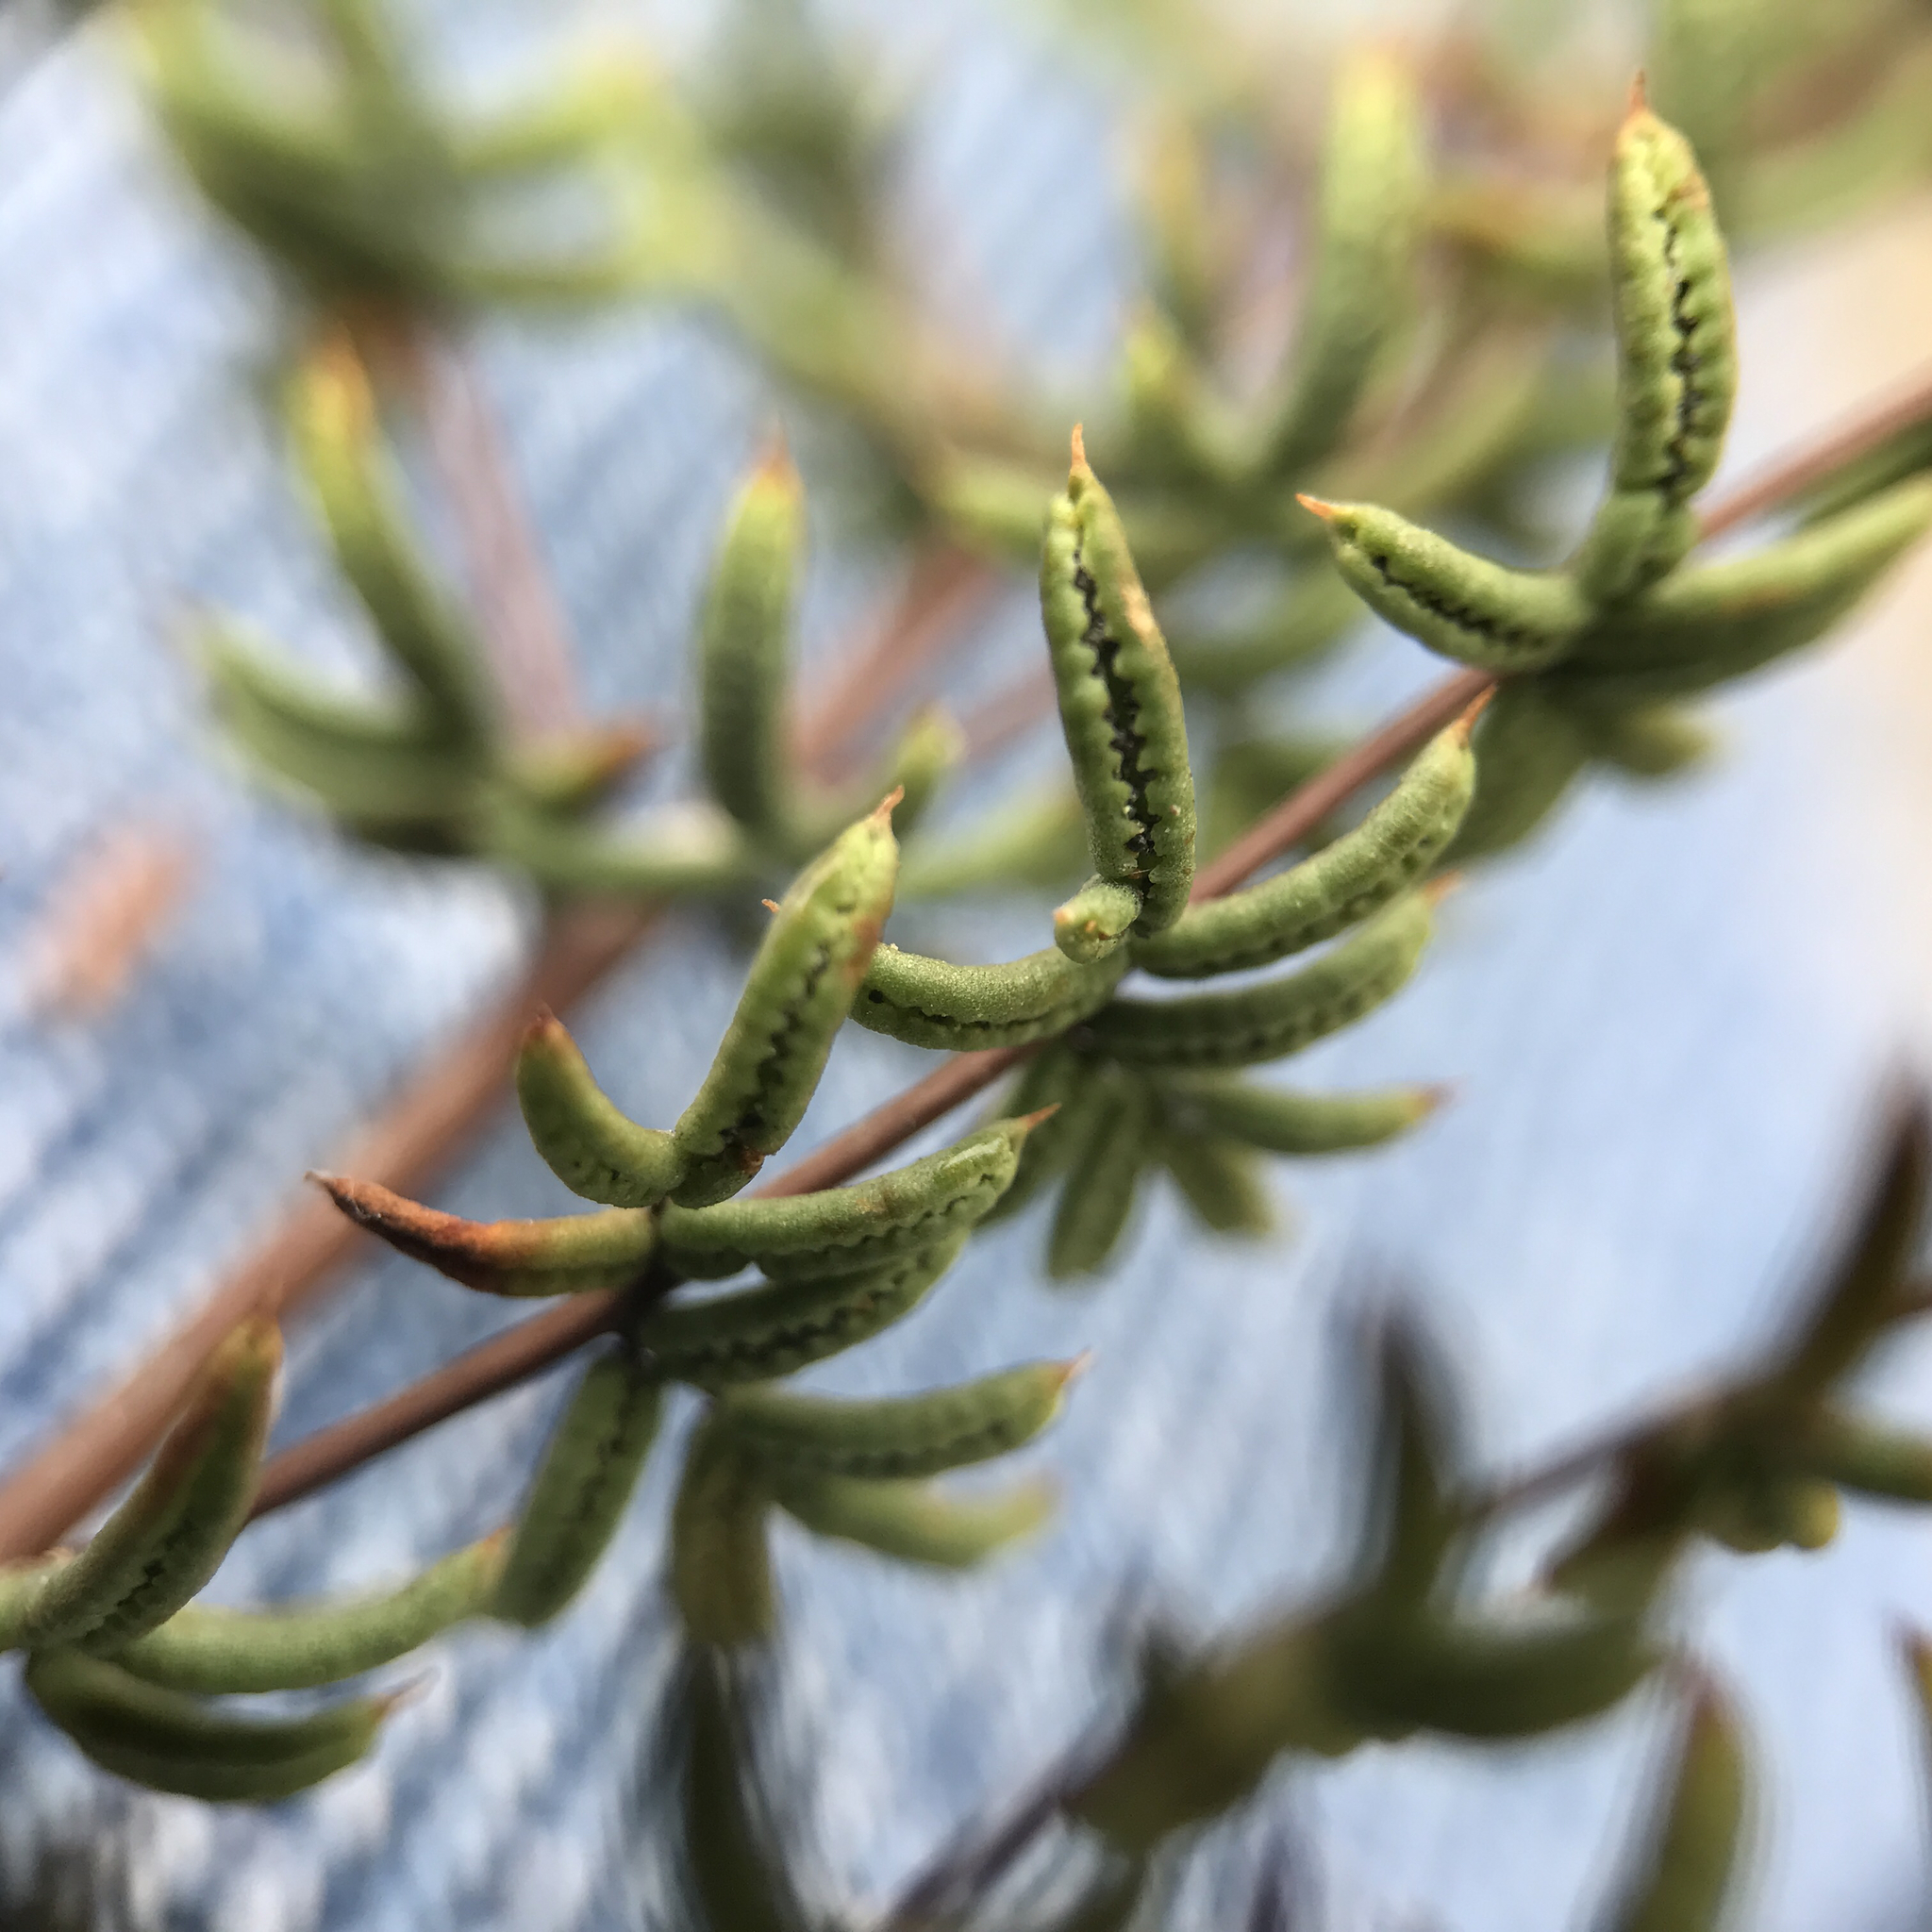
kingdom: Plantae
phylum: Tracheophyta
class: Polypodiopsida
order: Polypodiales
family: Pteridaceae
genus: Pellaea
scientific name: Pellaea mucronata
